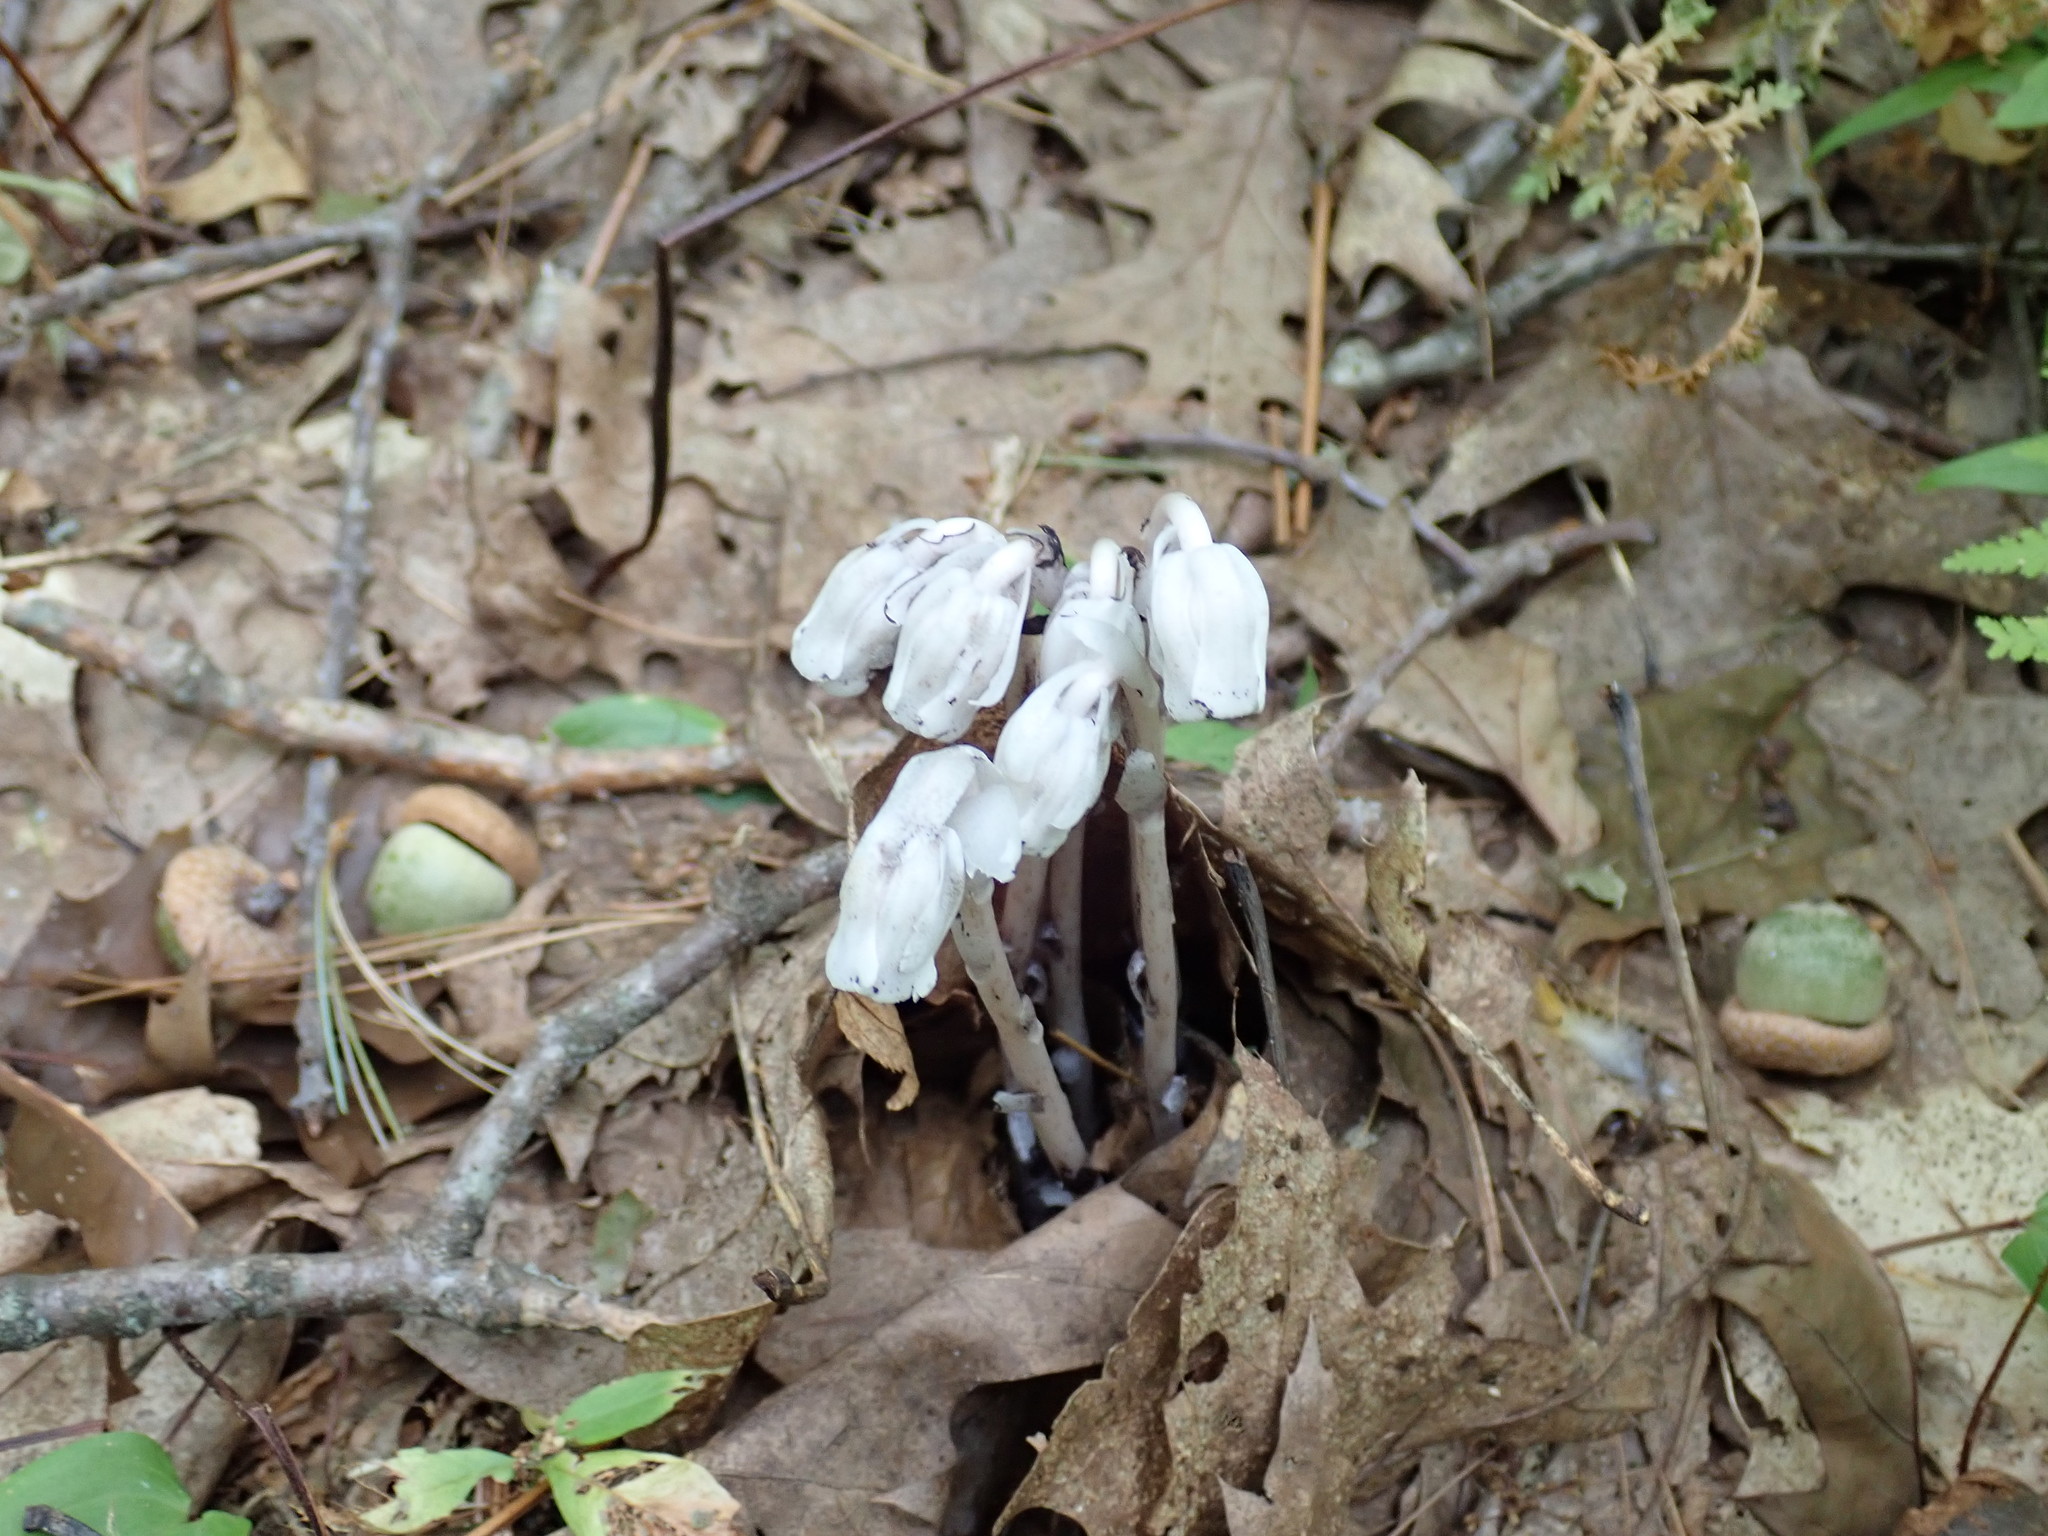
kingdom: Plantae
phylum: Tracheophyta
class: Magnoliopsida
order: Ericales
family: Ericaceae
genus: Monotropa
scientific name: Monotropa uniflora
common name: Convulsion root
